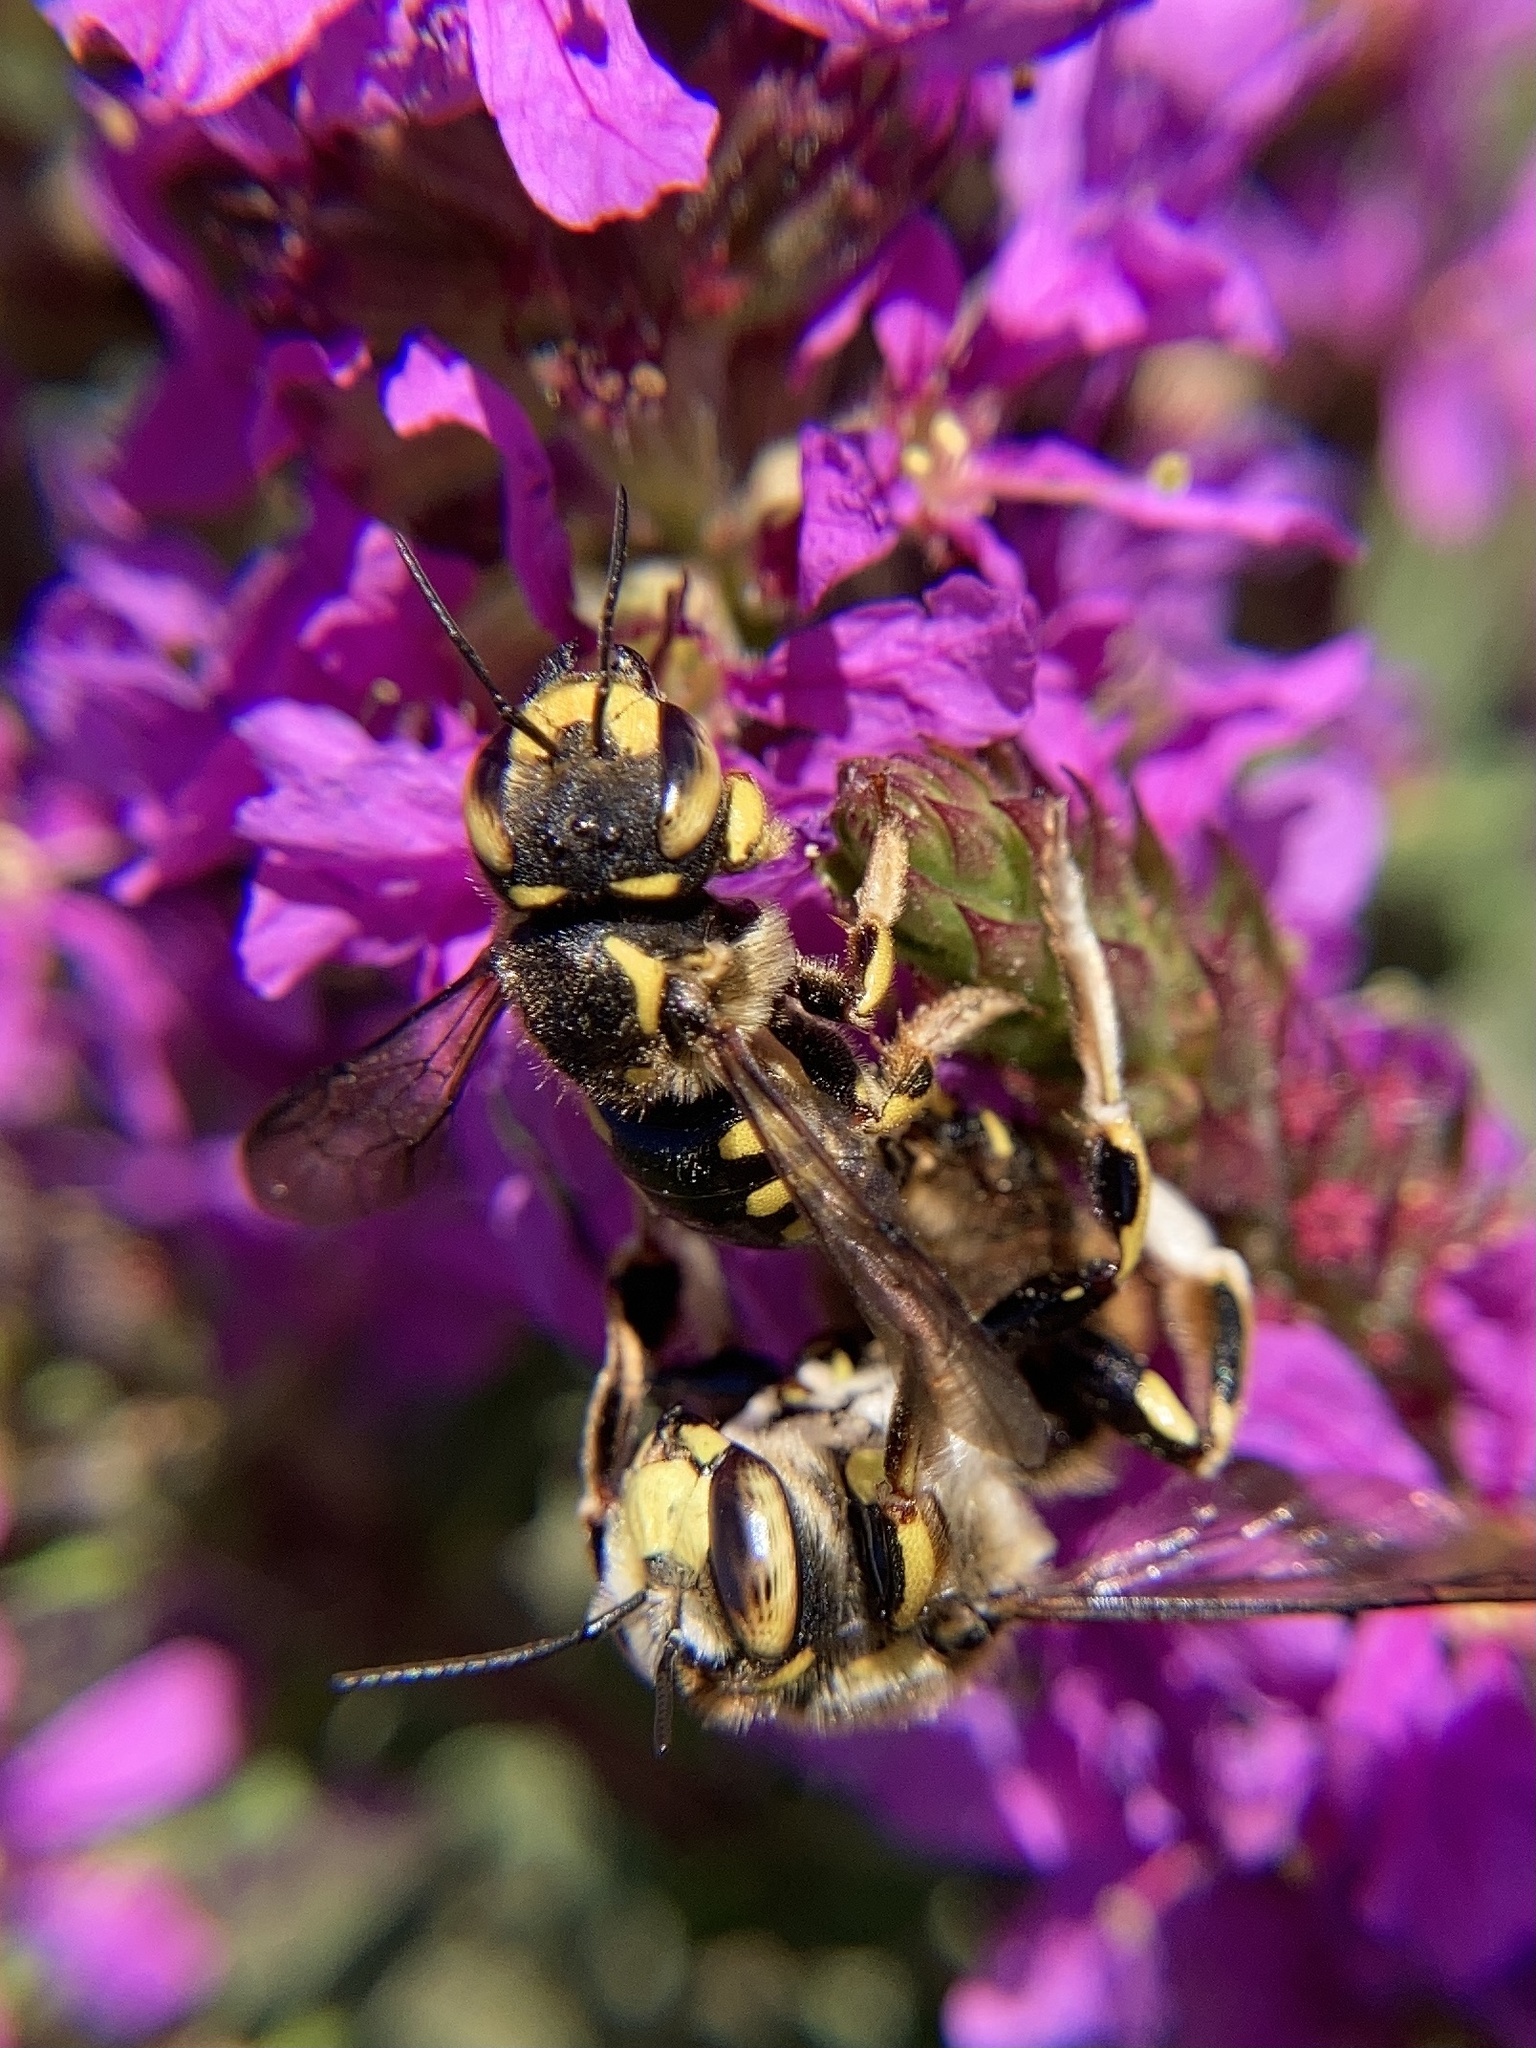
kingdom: Animalia
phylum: Arthropoda
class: Insecta
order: Hymenoptera
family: Megachilidae
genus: Anthidium
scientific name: Anthidium florentinum
